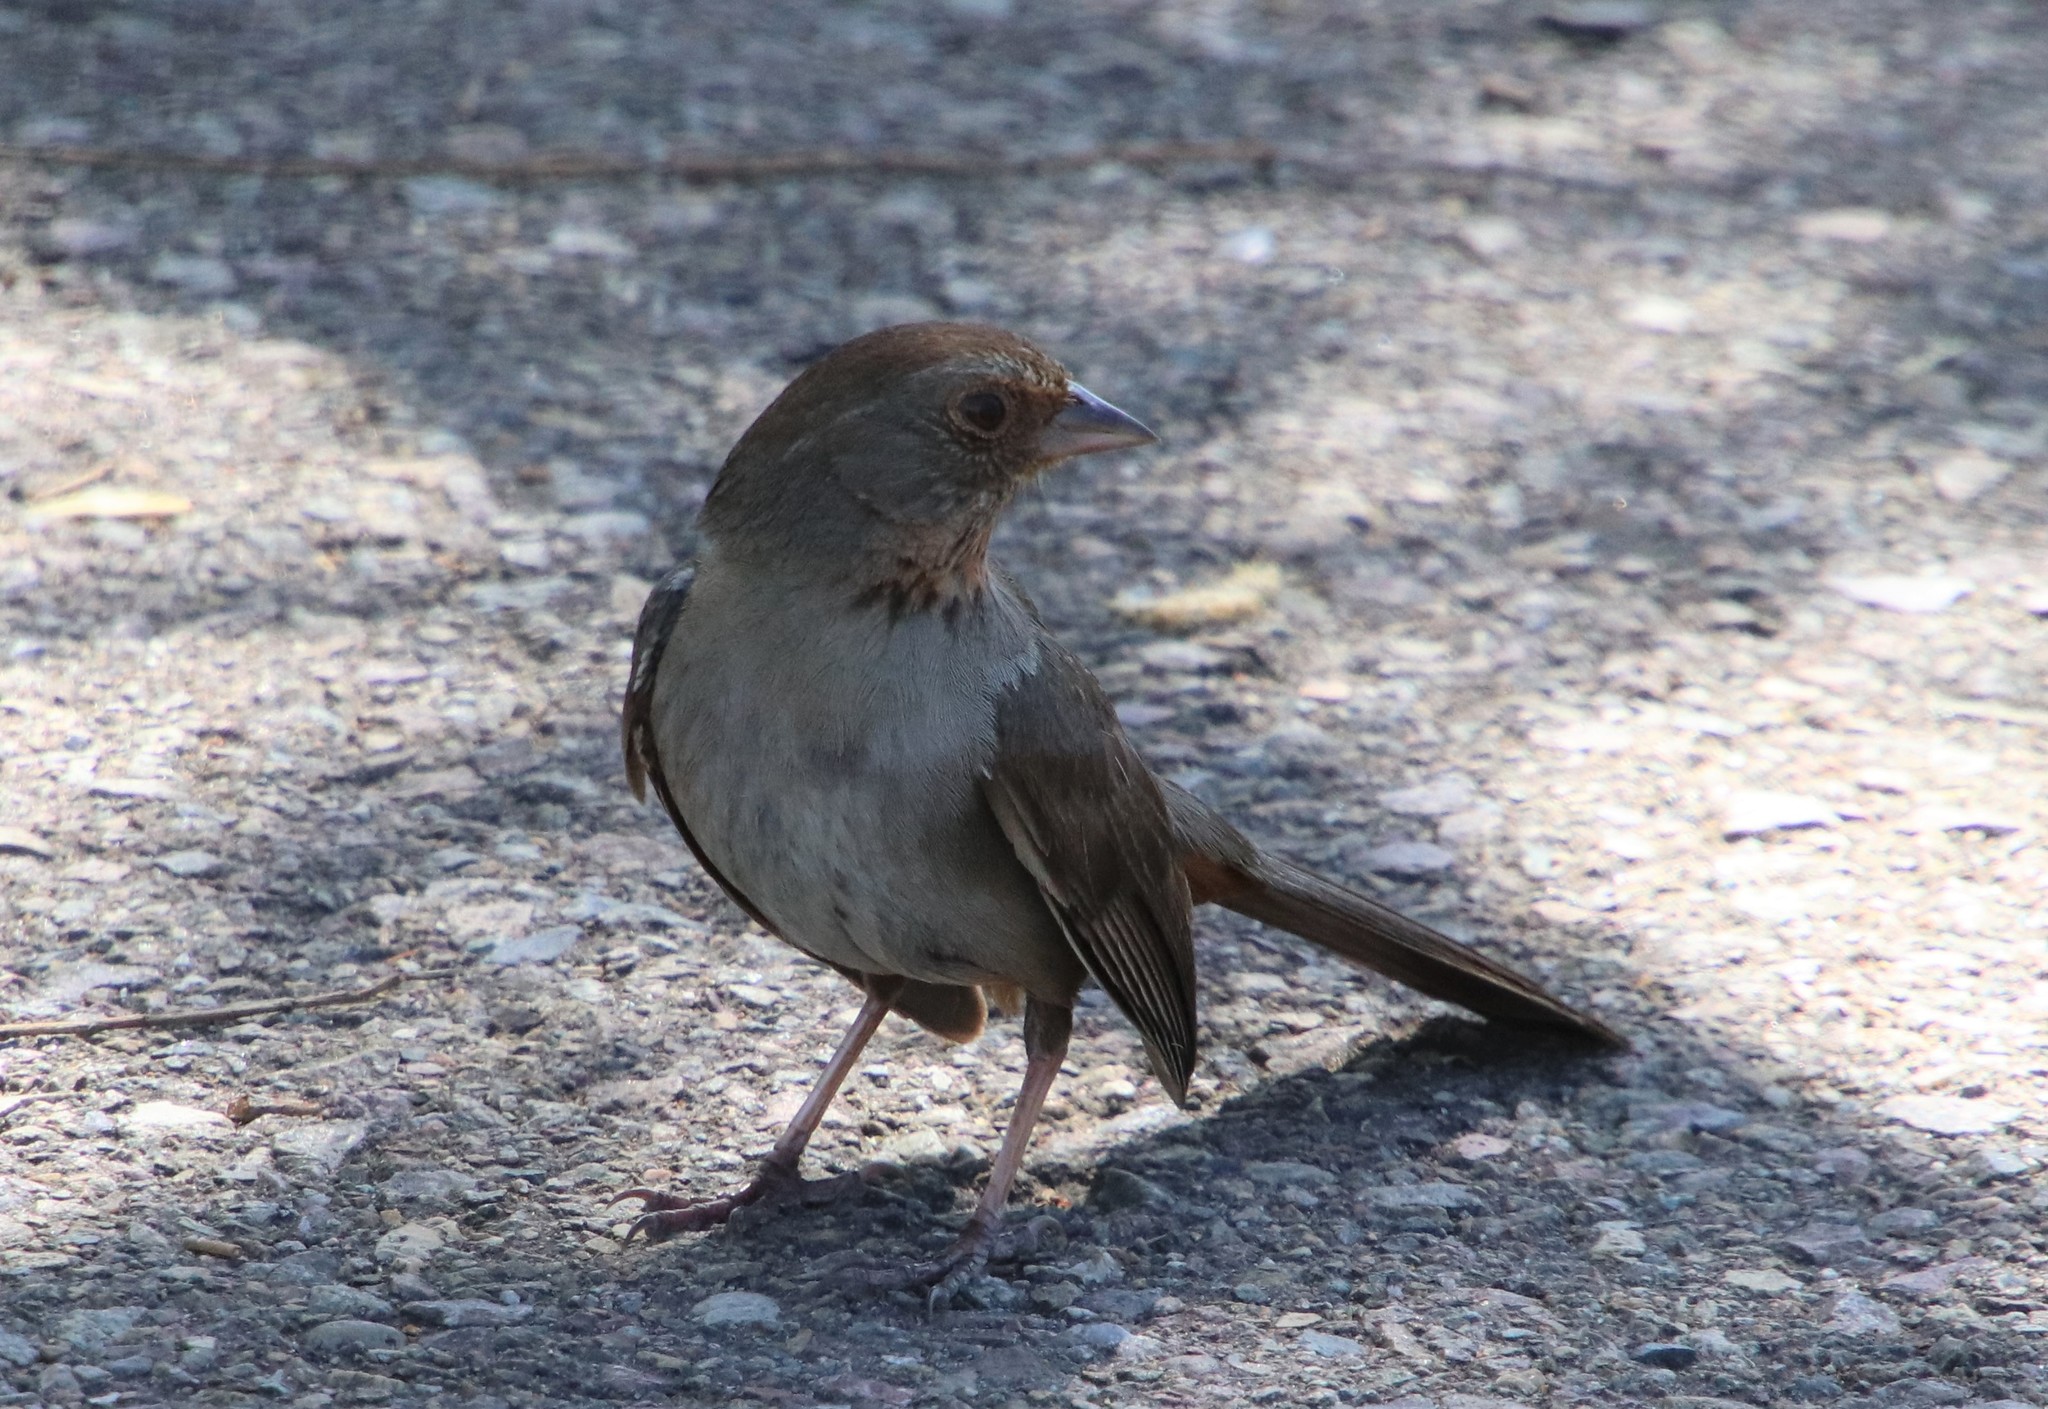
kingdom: Animalia
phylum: Chordata
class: Aves
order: Passeriformes
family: Passerellidae
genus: Melozone
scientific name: Melozone crissalis
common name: California towhee
